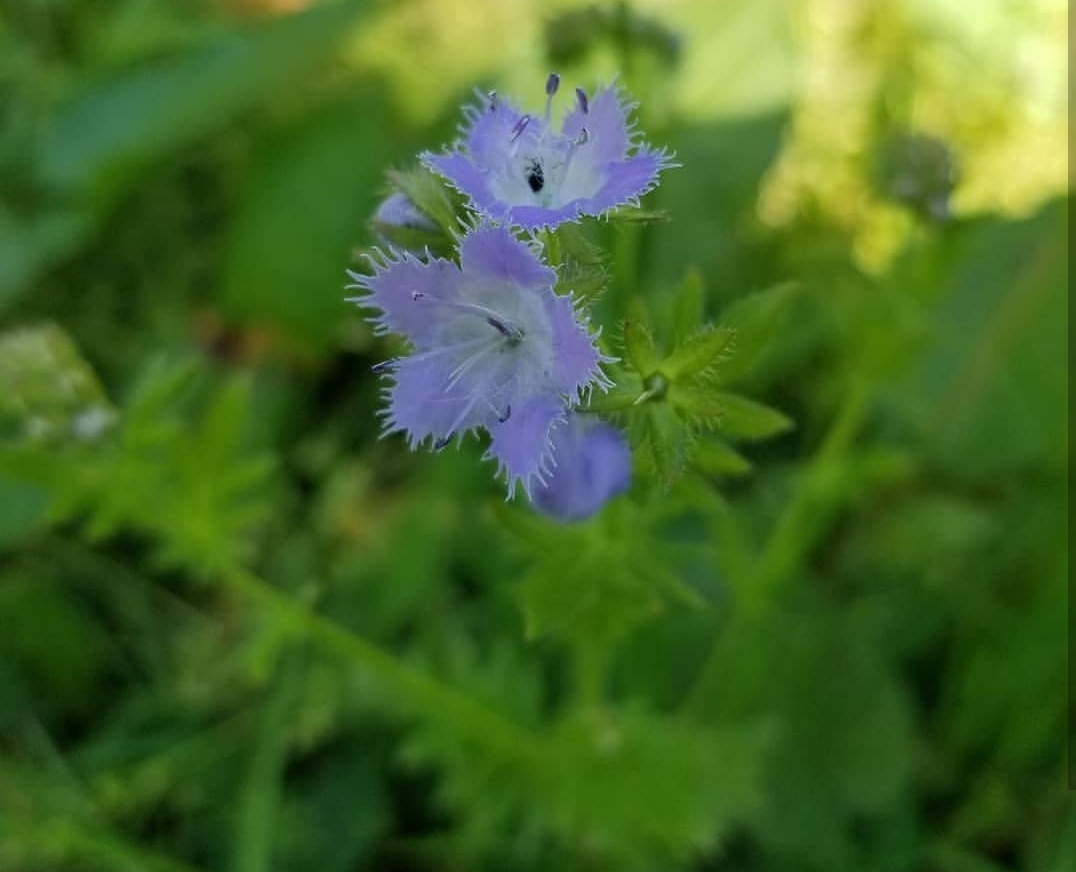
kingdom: Plantae
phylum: Tracheophyta
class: Magnoliopsida
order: Boraginales
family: Hydrophyllaceae
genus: Phacelia
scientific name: Phacelia purshii
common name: Miami-mist
